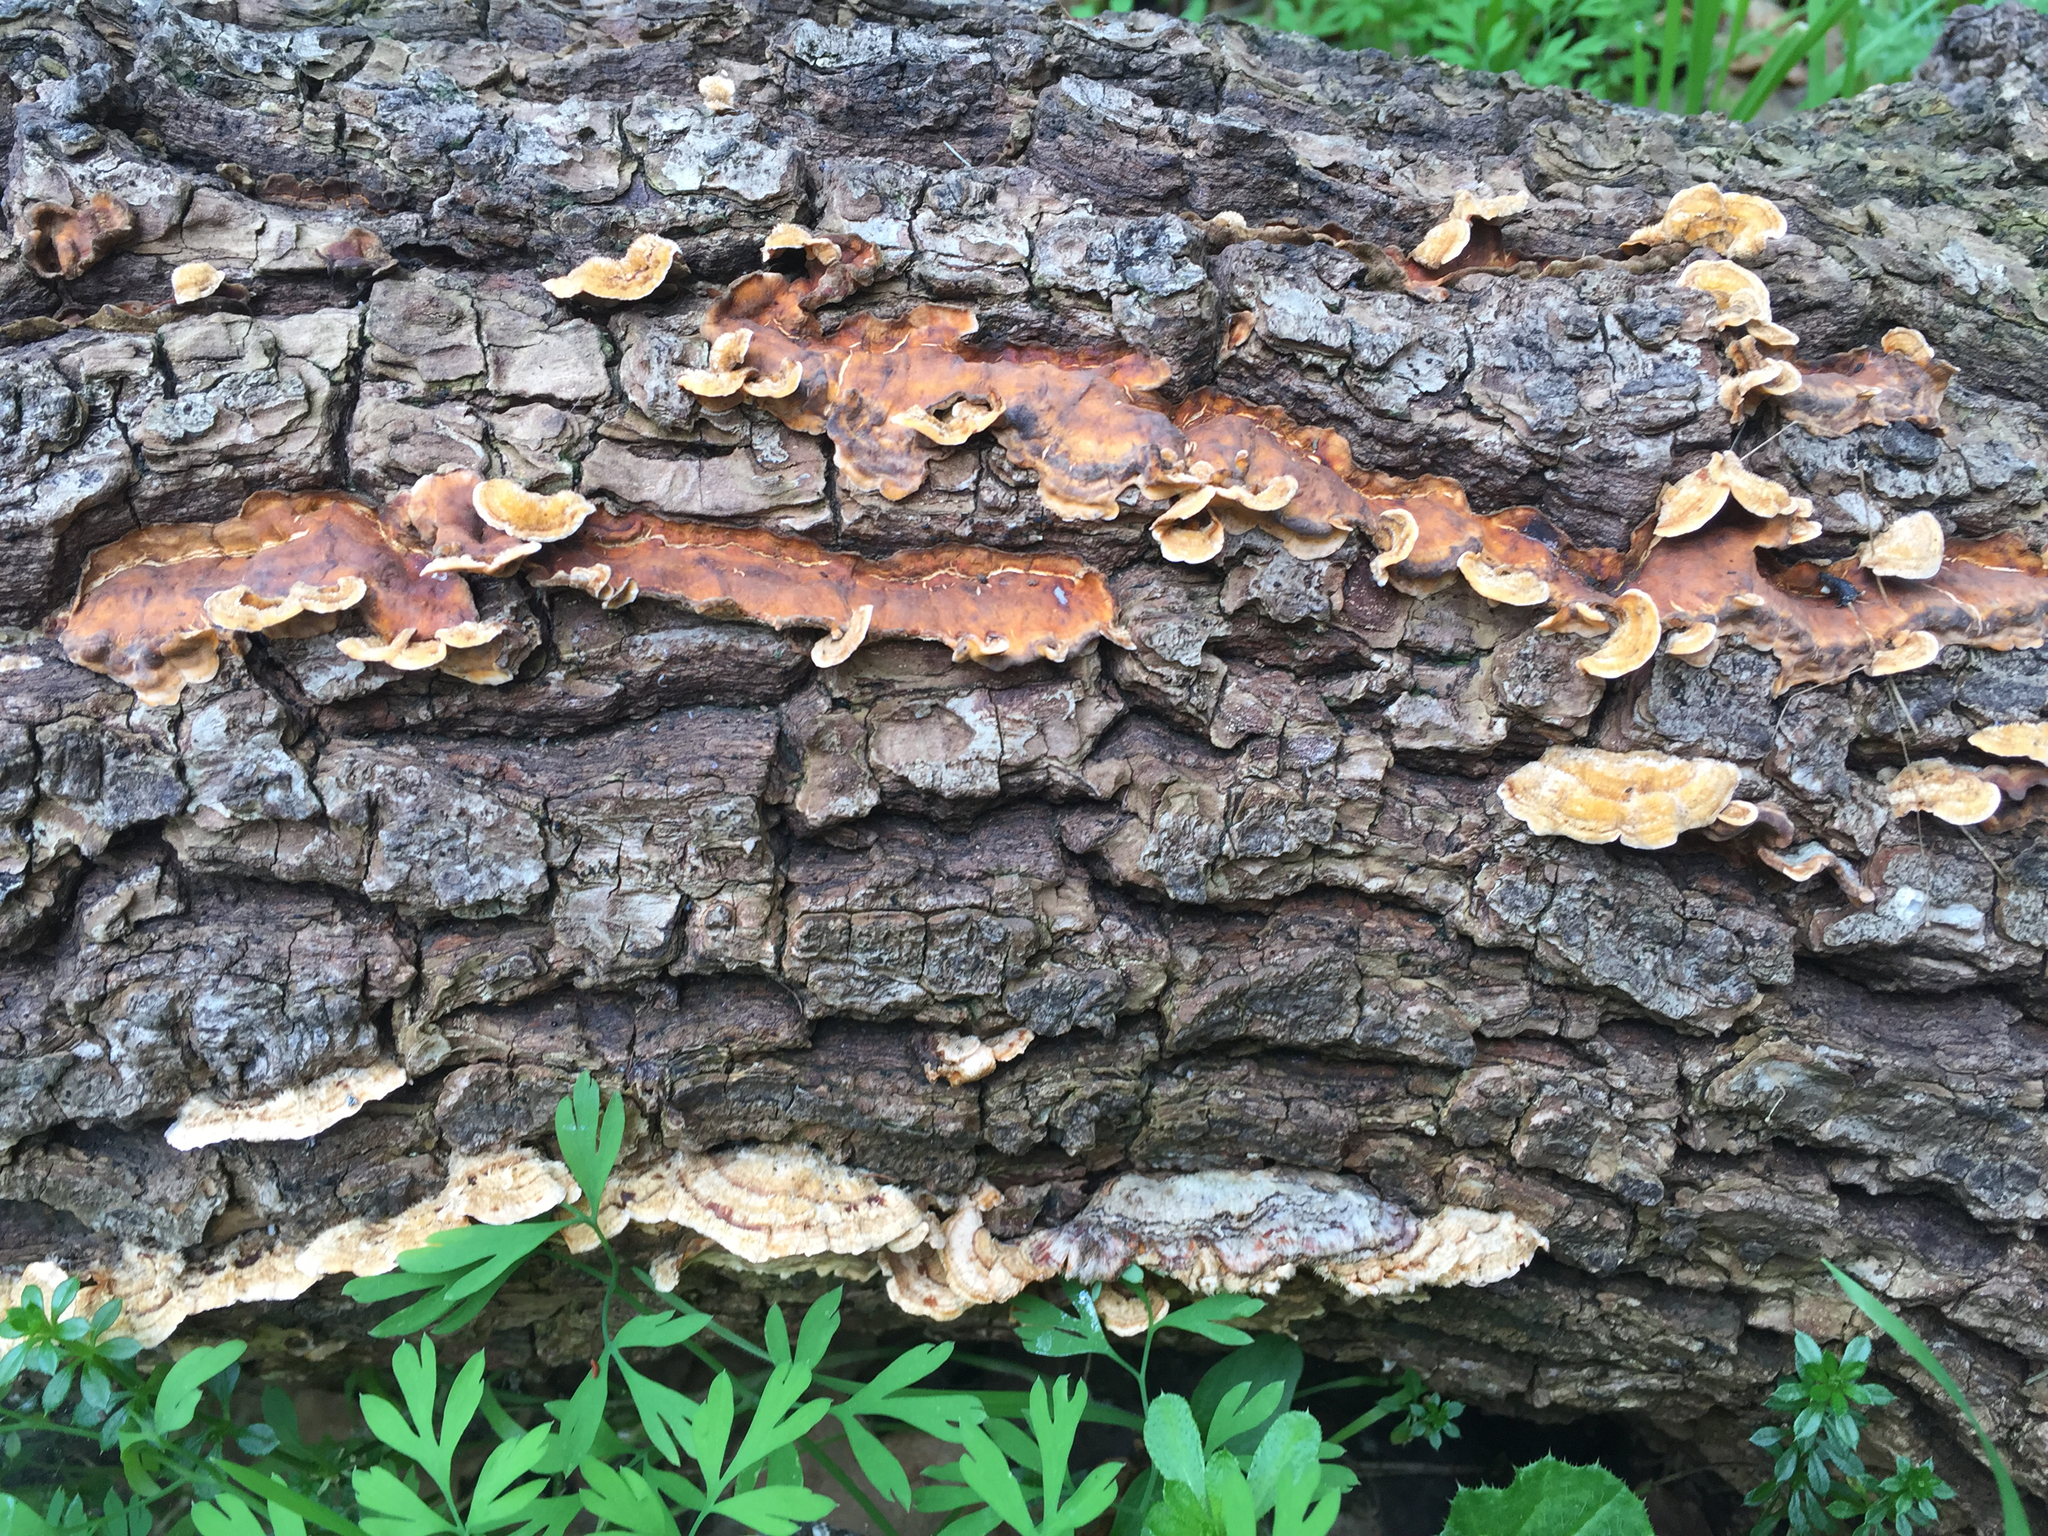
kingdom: Fungi
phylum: Basidiomycota
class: Agaricomycetes
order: Russulales
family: Stereaceae
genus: Stereum
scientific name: Stereum hirsutum
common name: Hairy curtain crust
